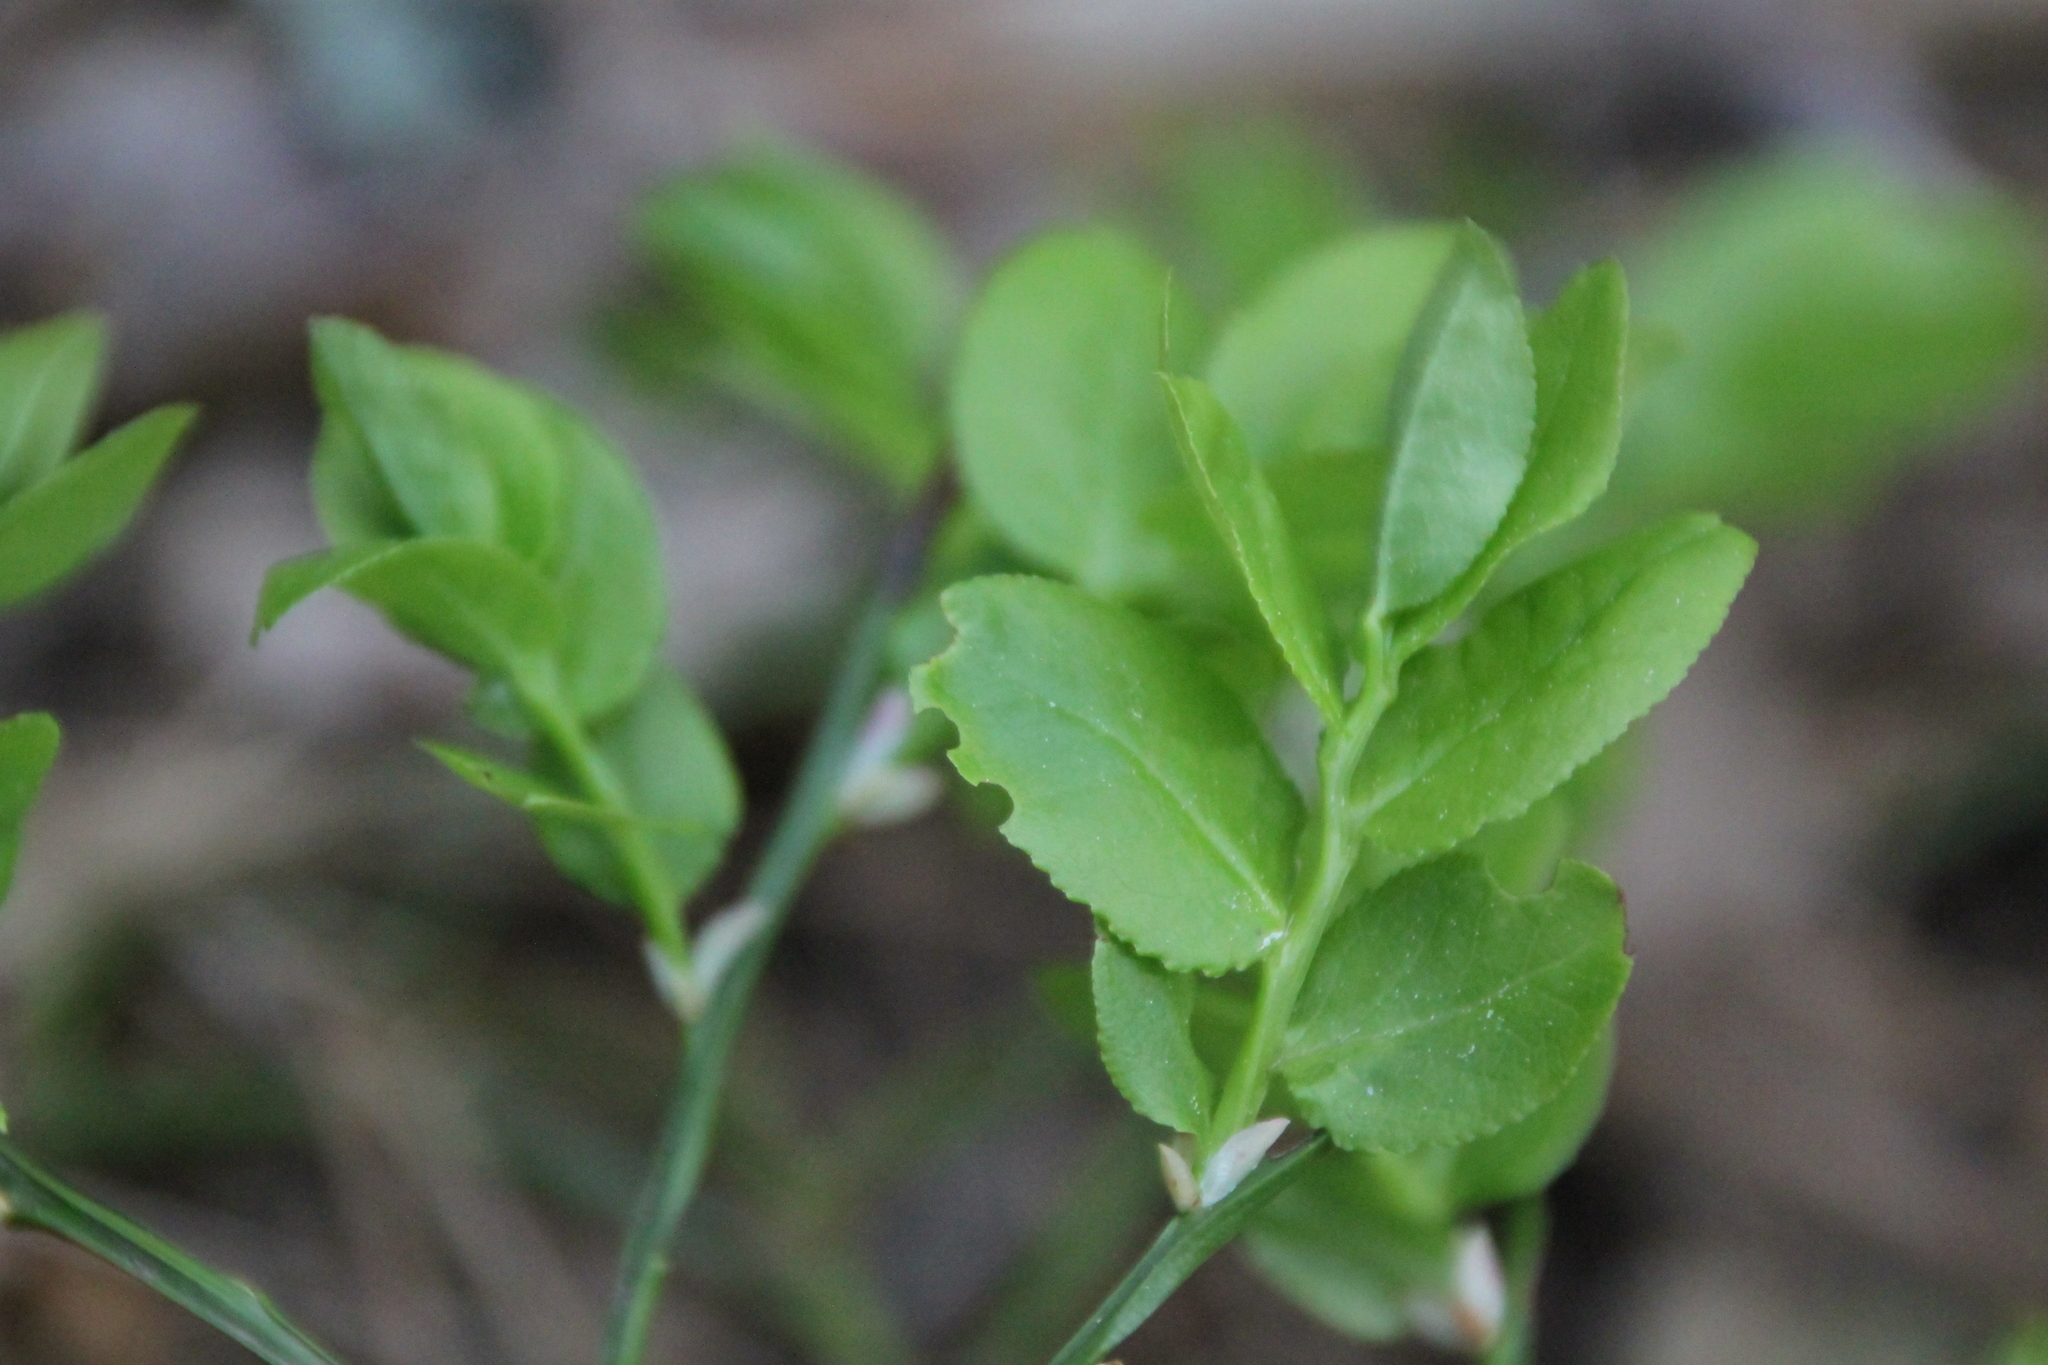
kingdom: Plantae
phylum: Tracheophyta
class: Magnoliopsida
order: Ericales
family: Ericaceae
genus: Vaccinium
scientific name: Vaccinium myrtillus
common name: Bilberry
